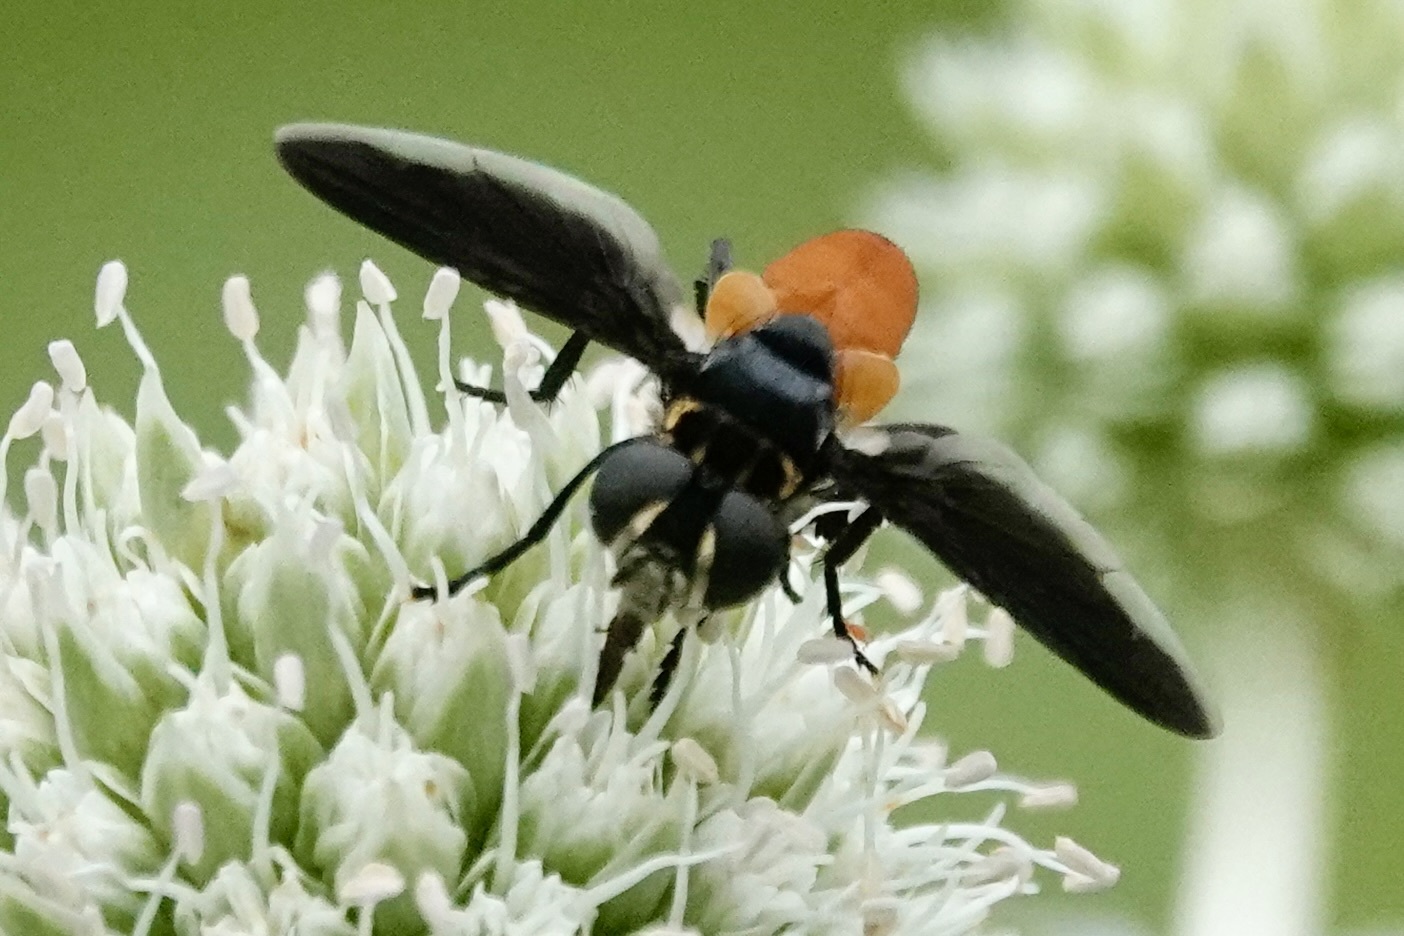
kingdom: Animalia
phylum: Arthropoda
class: Insecta
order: Diptera
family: Tachinidae
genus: Trichopoda
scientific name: Trichopoda pennipes
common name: Tachinid fly
